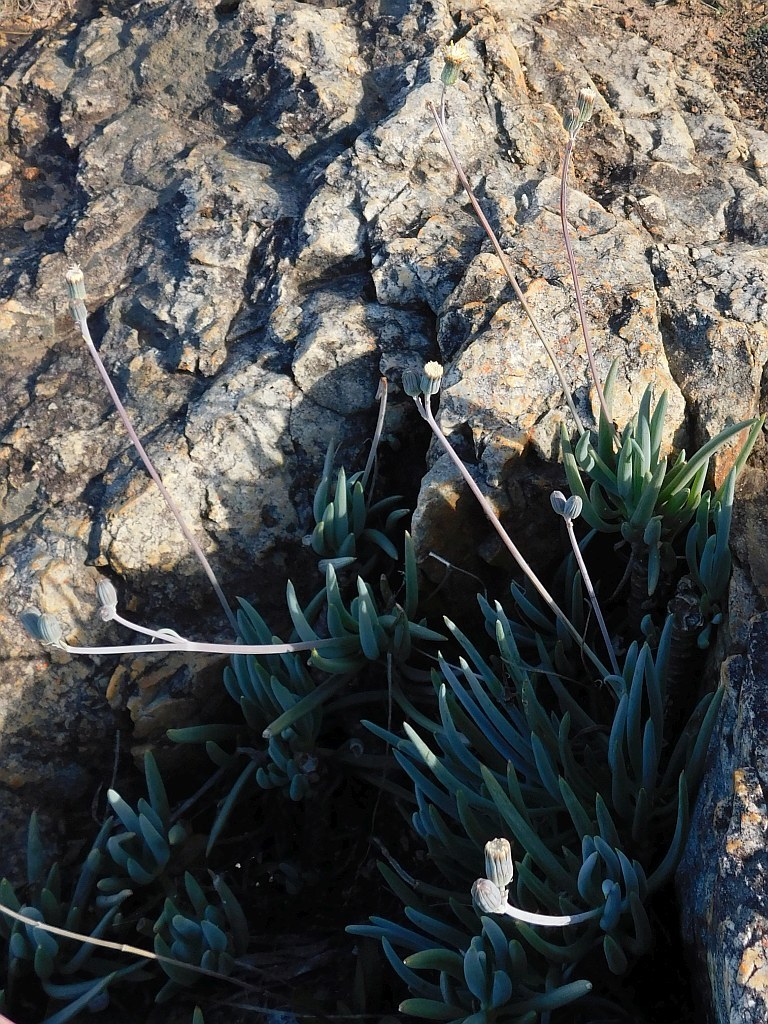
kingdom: Plantae
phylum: Tracheophyta
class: Magnoliopsida
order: Asterales
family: Asteraceae
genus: Curio
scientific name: Curio talinoides
